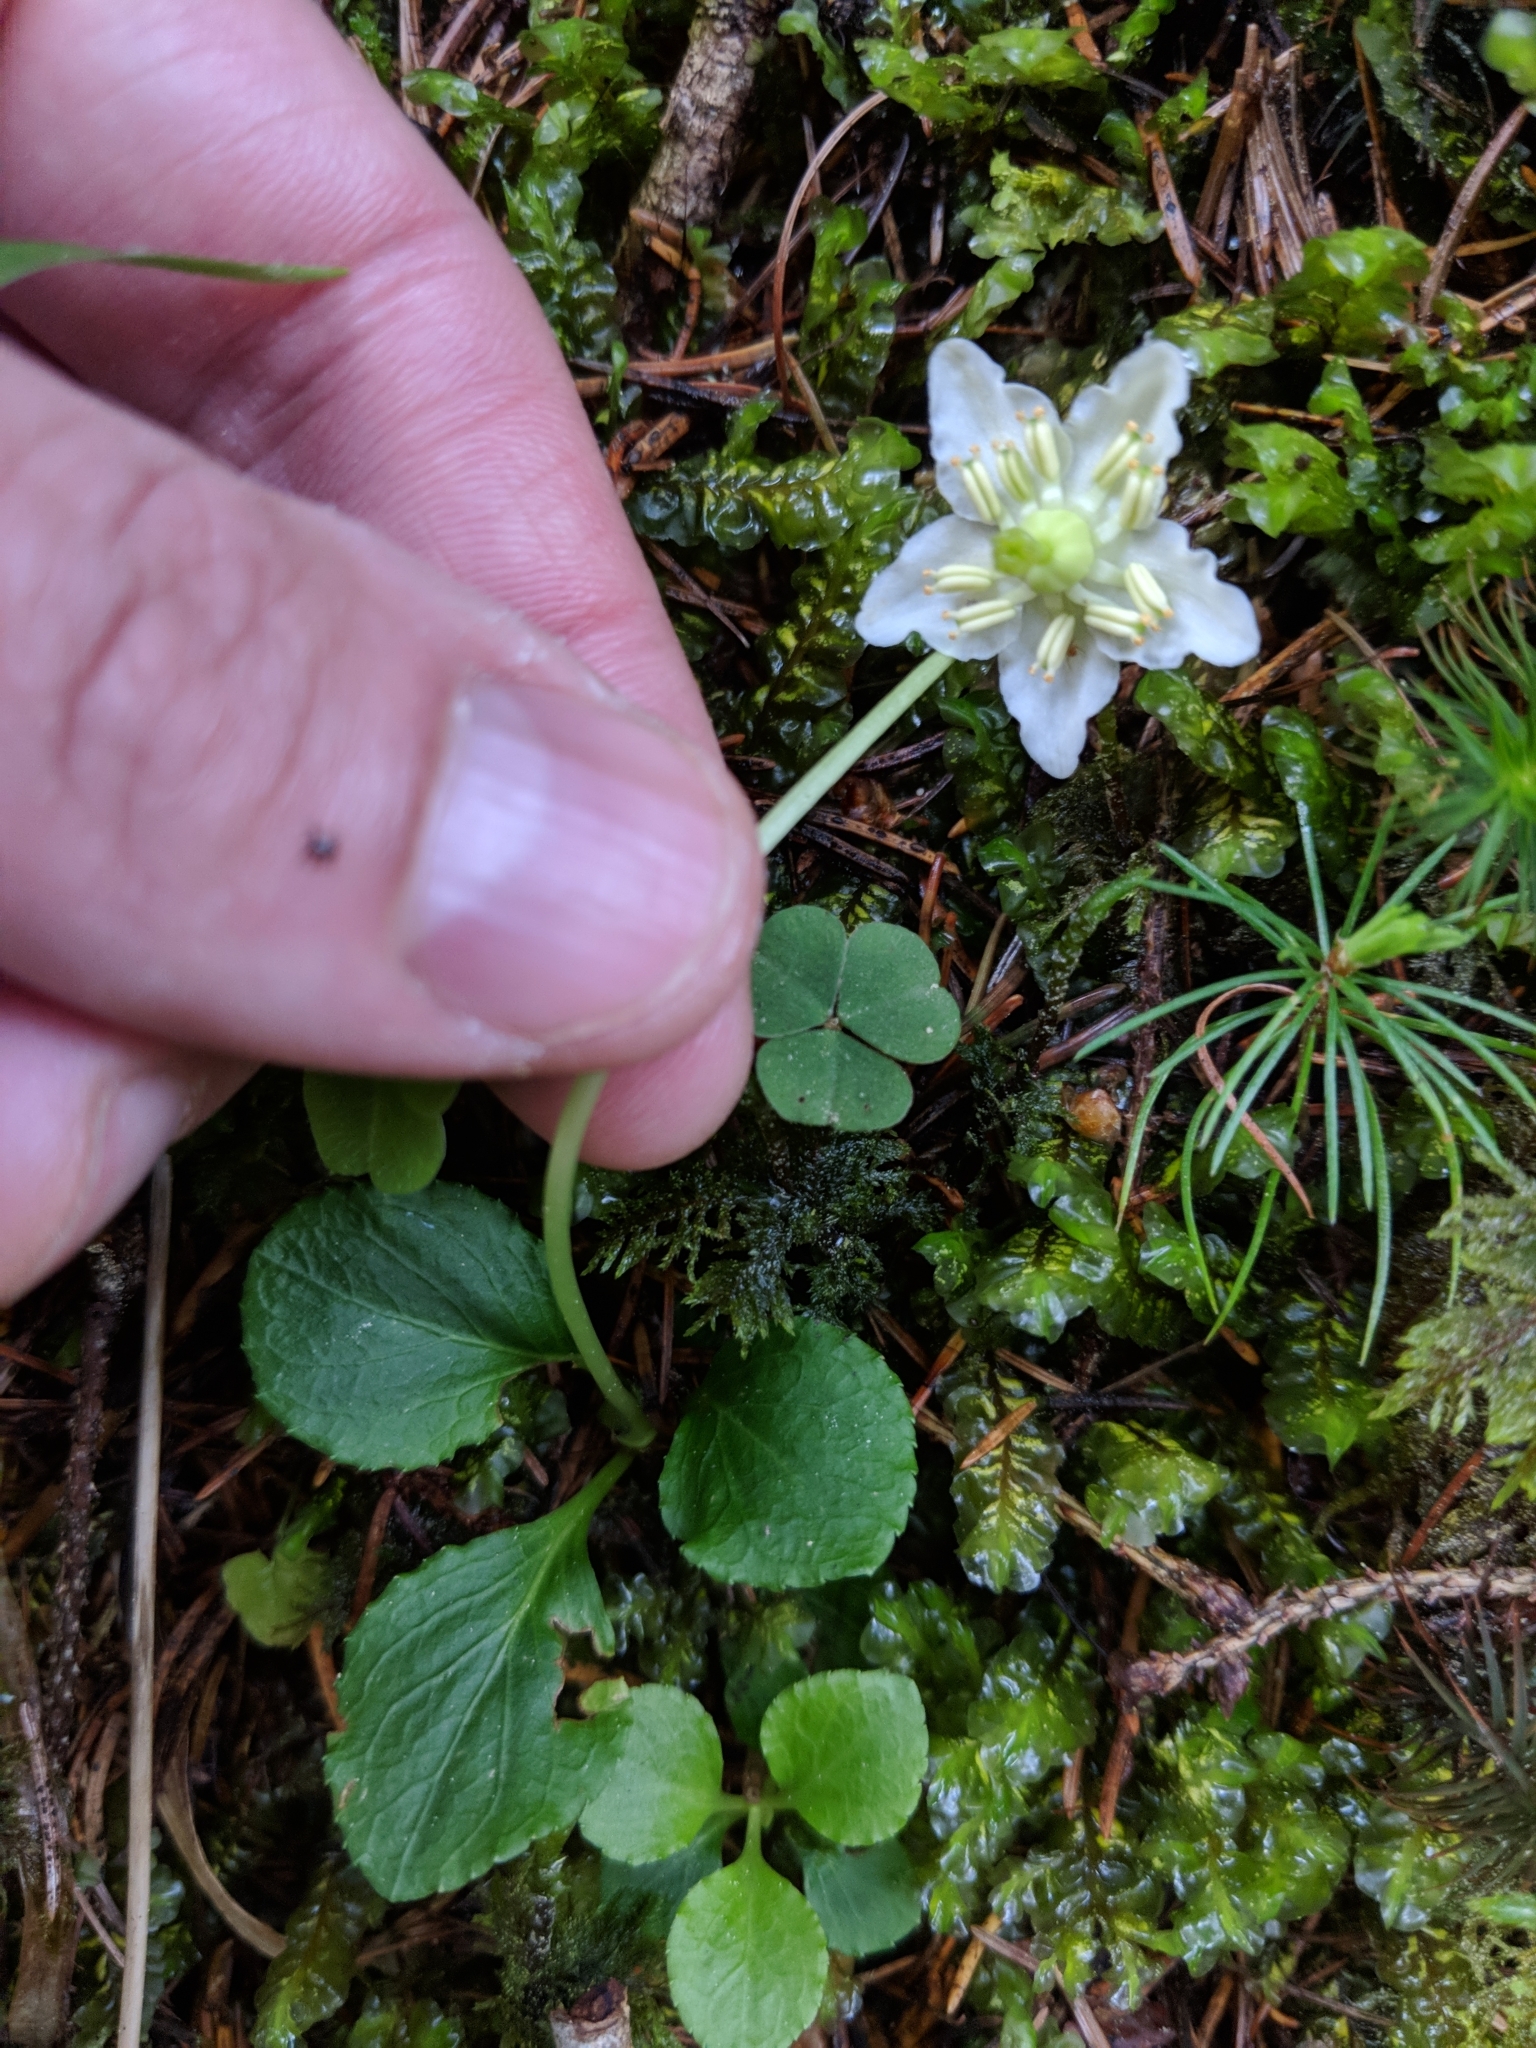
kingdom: Plantae
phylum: Tracheophyta
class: Magnoliopsida
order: Ericales
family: Ericaceae
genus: Moneses
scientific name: Moneses uniflora
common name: One-flowered wintergreen
